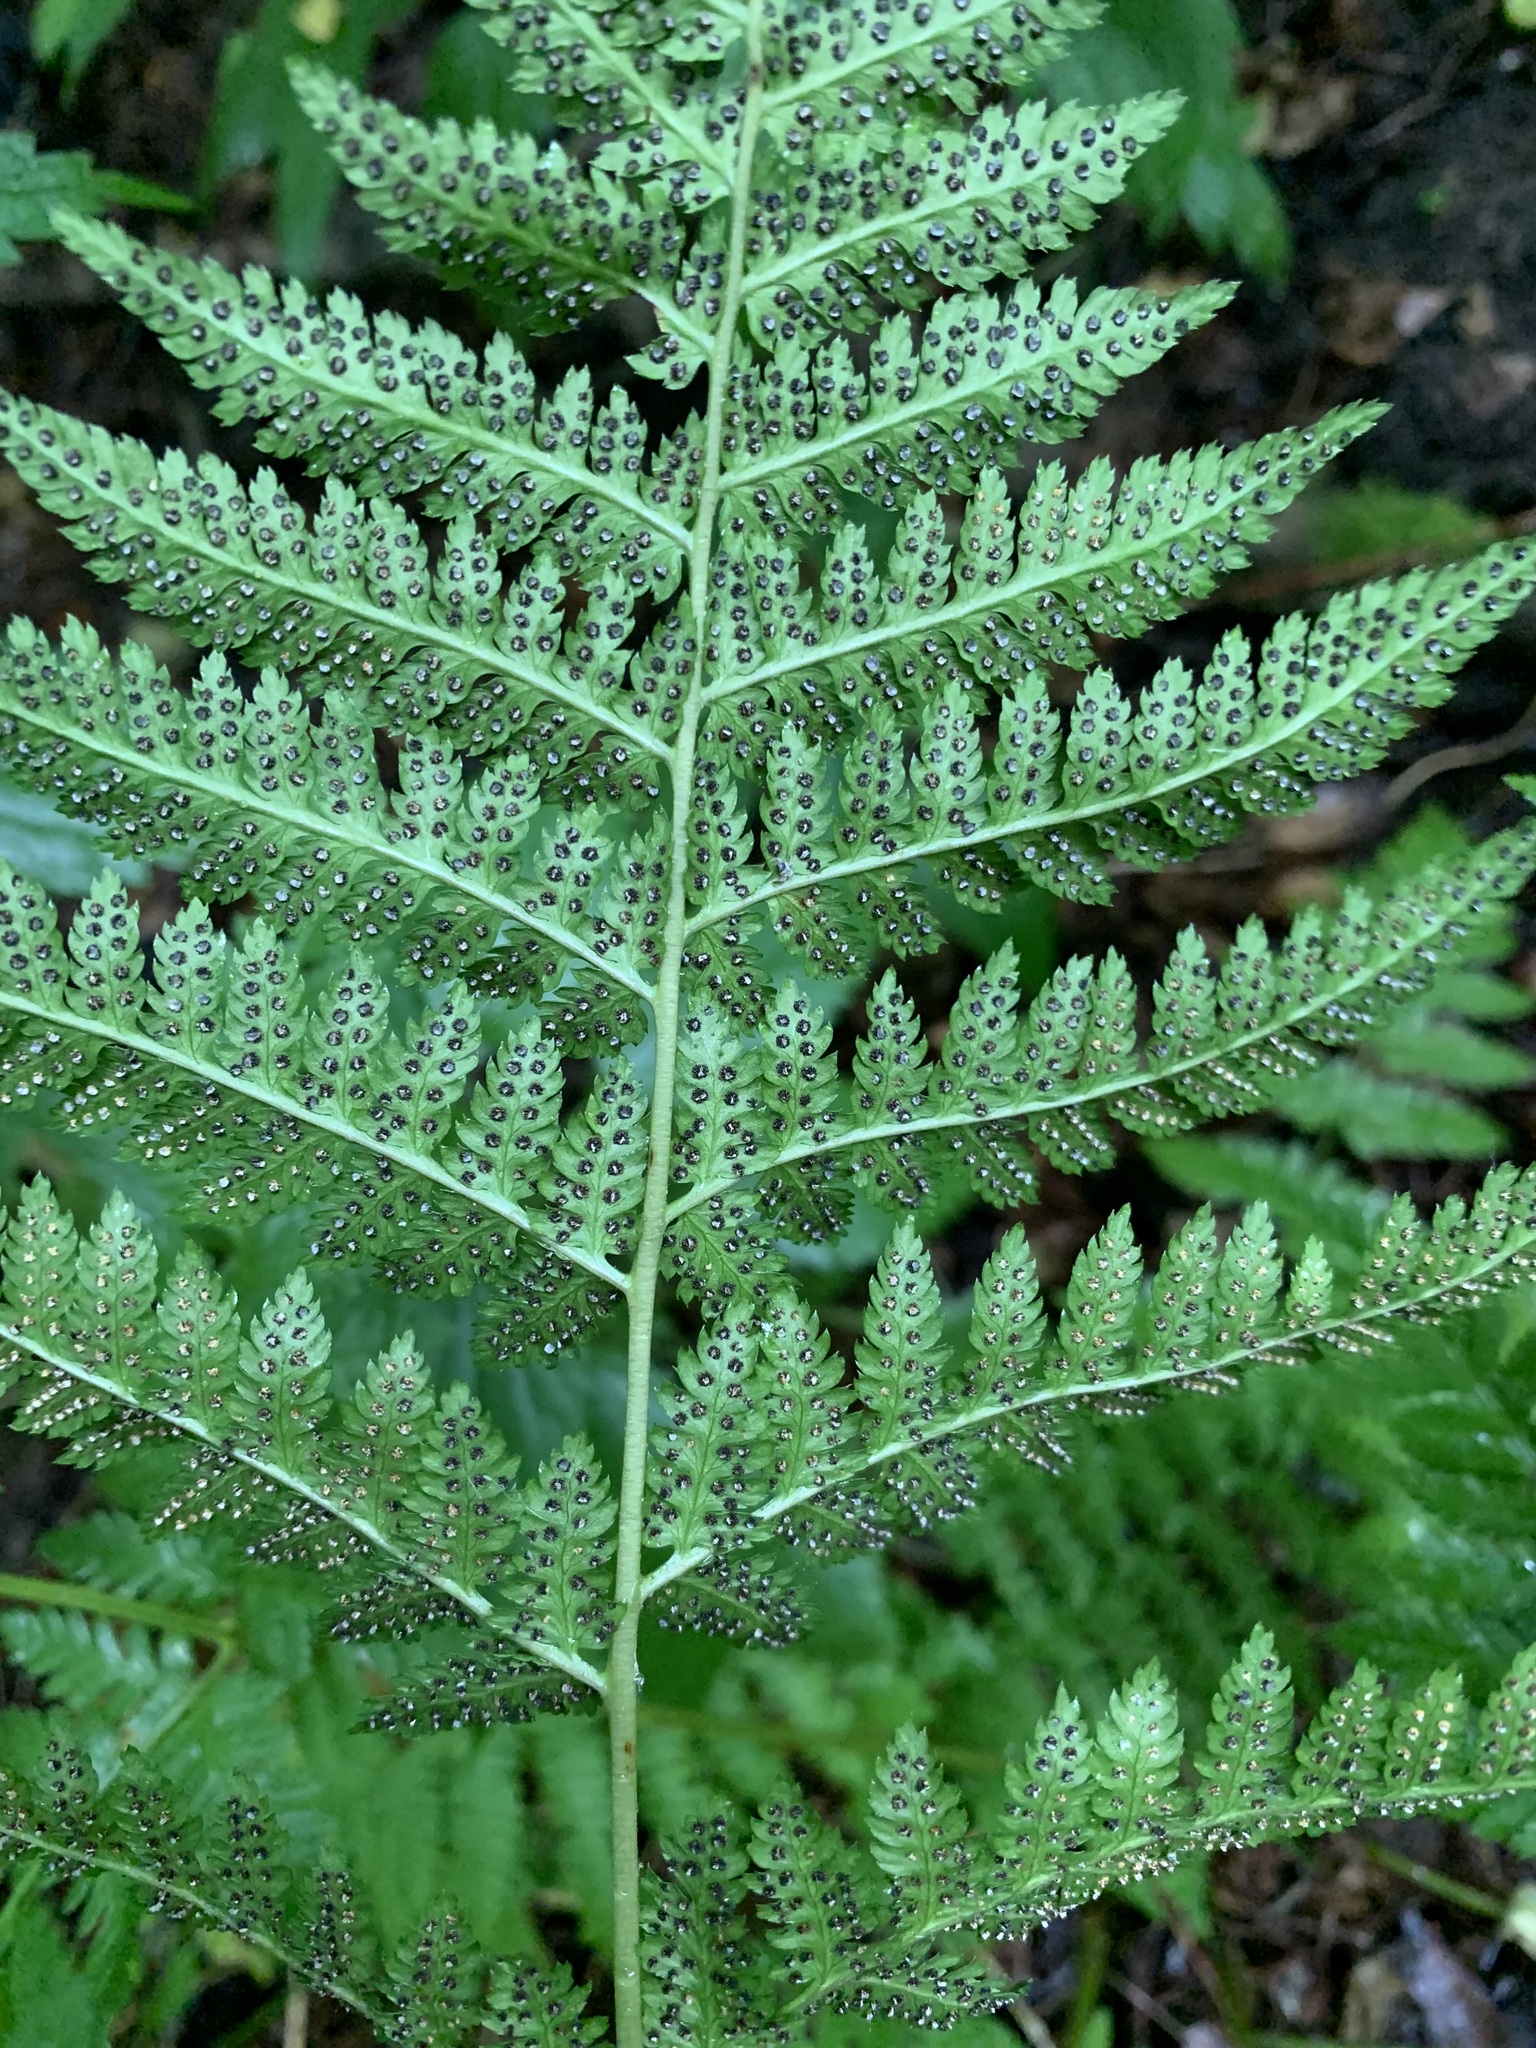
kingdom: Plantae
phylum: Tracheophyta
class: Polypodiopsida
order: Polypodiales
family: Dryopteridaceae
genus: Dryopteris
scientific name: Dryopteris carthusiana
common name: Narrow buckler-fern
